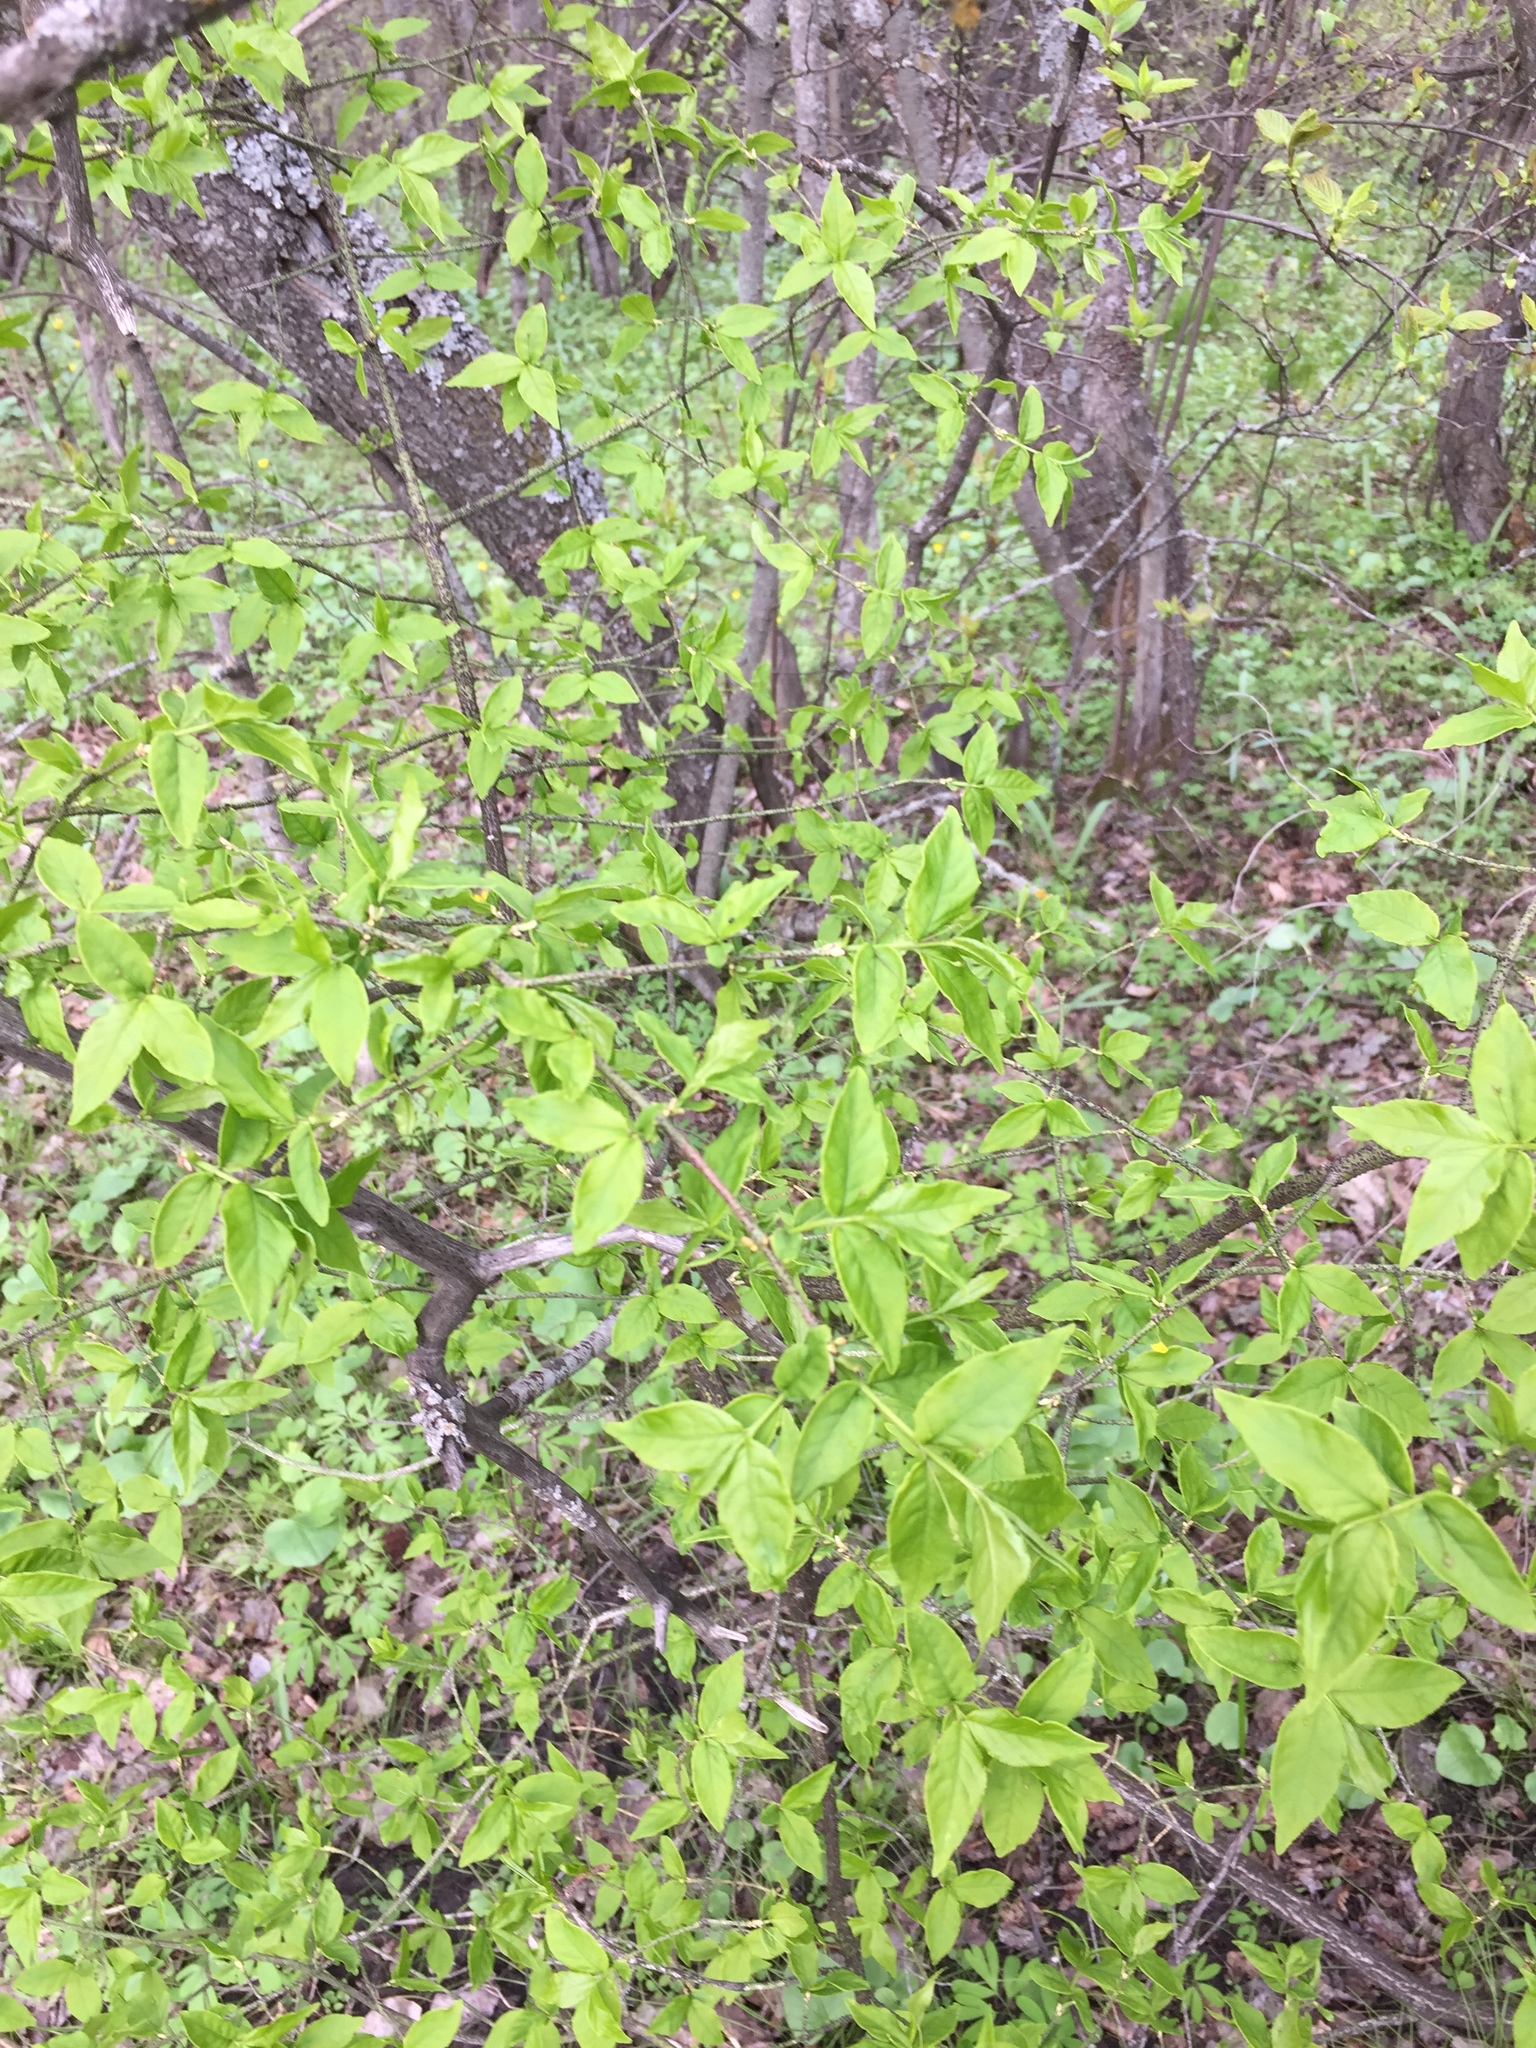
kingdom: Plantae
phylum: Tracheophyta
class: Magnoliopsida
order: Celastrales
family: Celastraceae
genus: Euonymus
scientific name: Euonymus verrucosus
